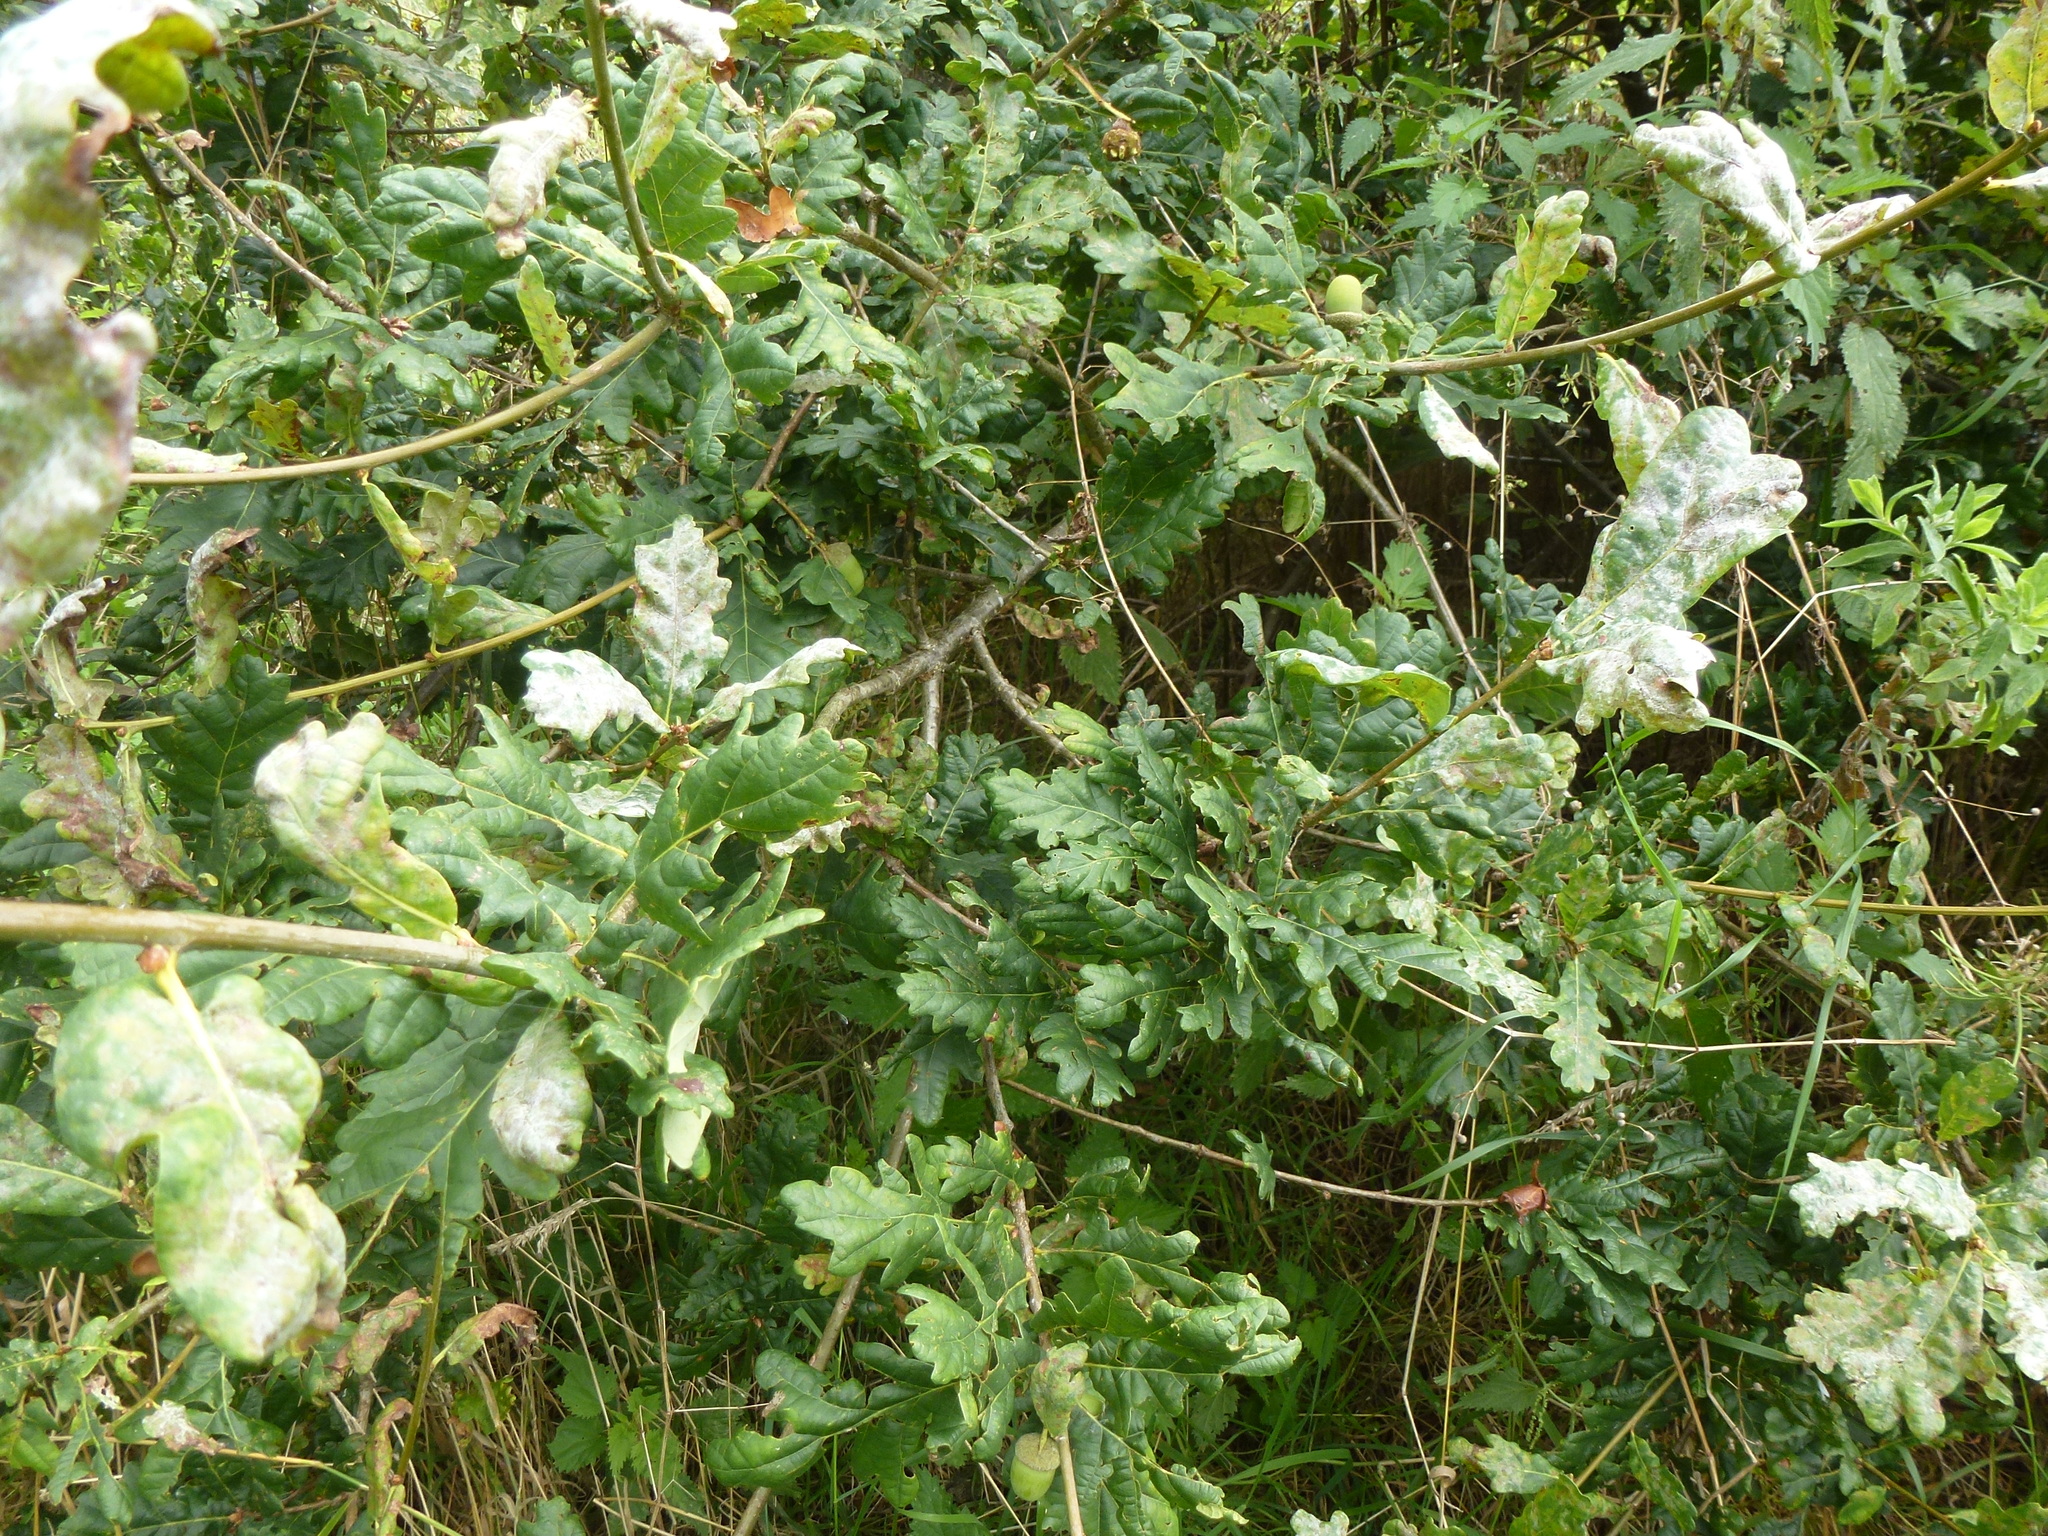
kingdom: Plantae
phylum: Tracheophyta
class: Magnoliopsida
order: Fagales
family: Fagaceae
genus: Quercus
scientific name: Quercus robur
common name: Pedunculate oak
